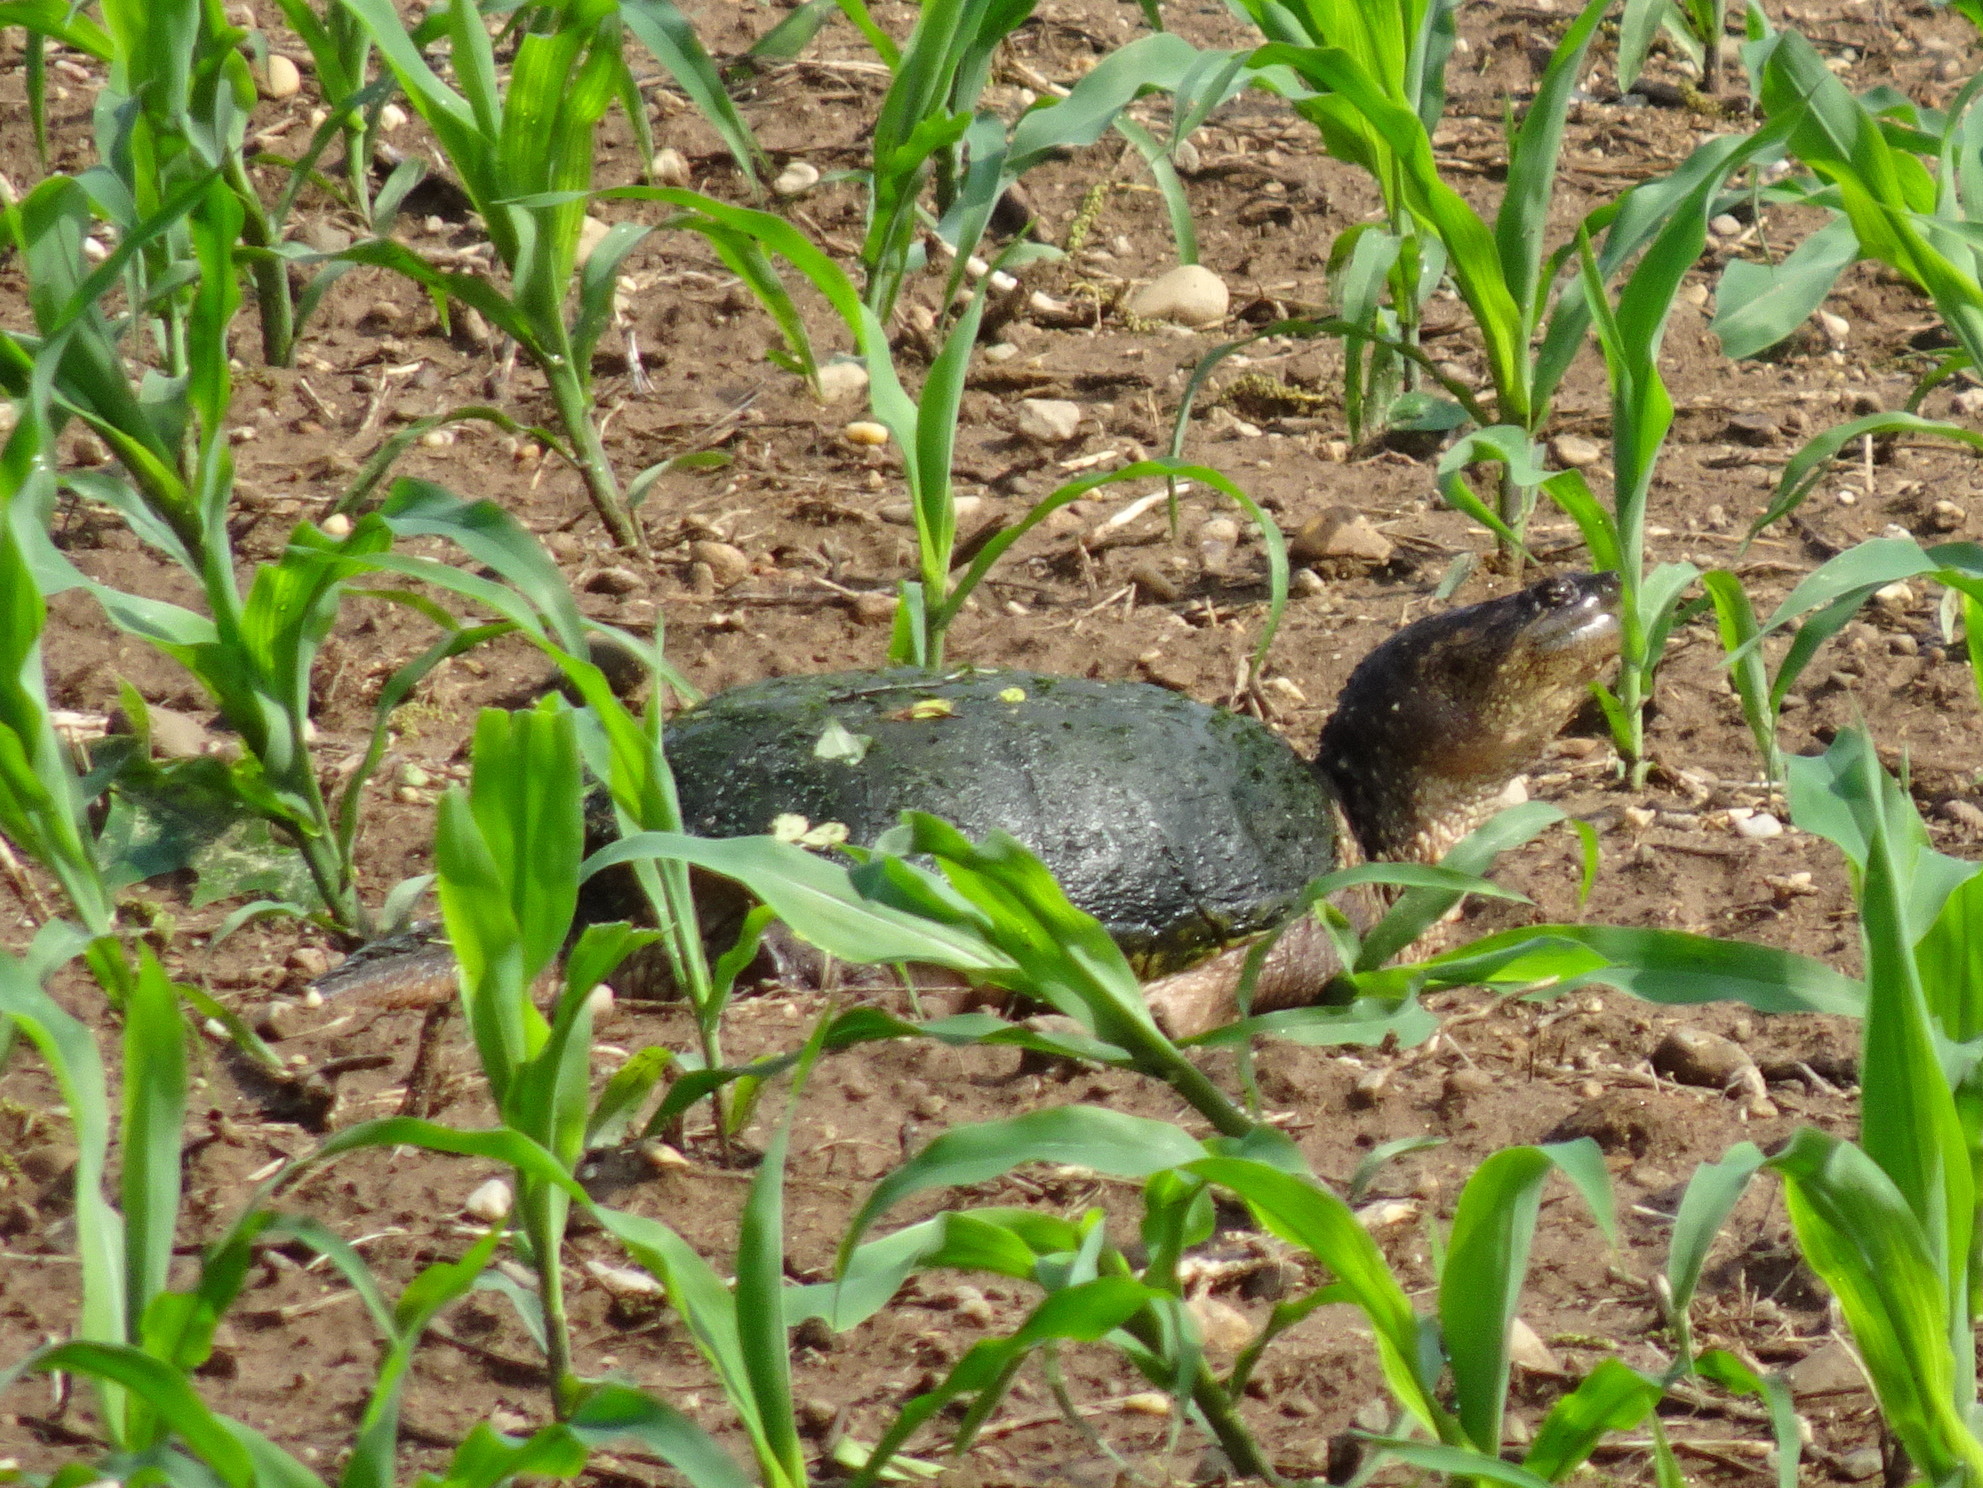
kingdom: Animalia
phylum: Chordata
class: Testudines
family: Chelydridae
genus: Chelydra
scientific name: Chelydra serpentina
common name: Common snapping turtle
